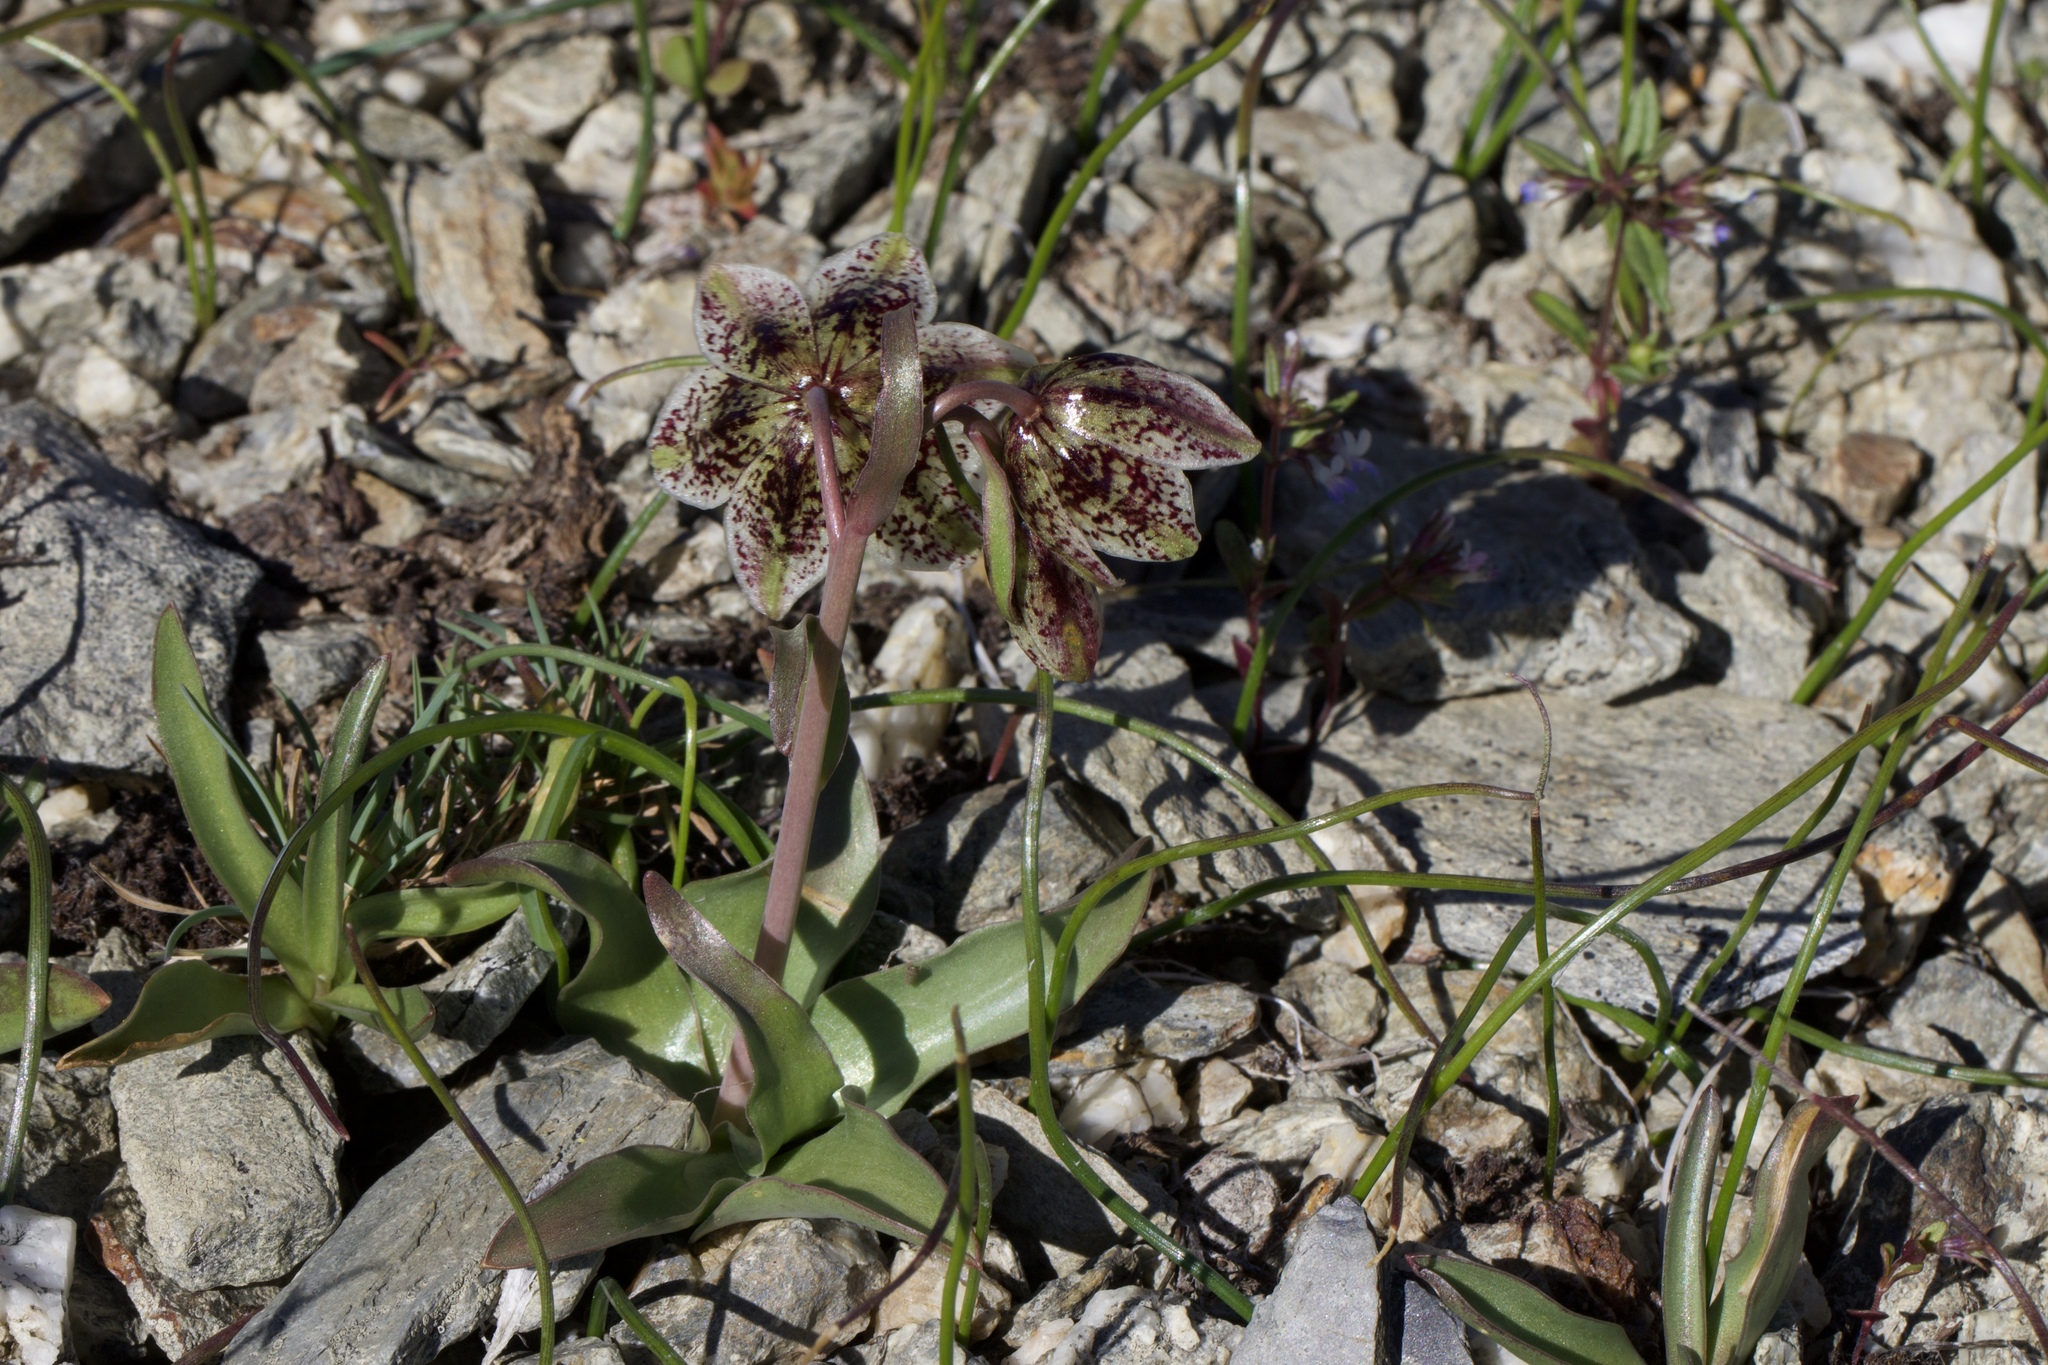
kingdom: Plantae
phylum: Tracheophyta
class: Liliopsida
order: Liliales
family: Liliaceae
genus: Fritillaria
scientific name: Fritillaria purdyi
